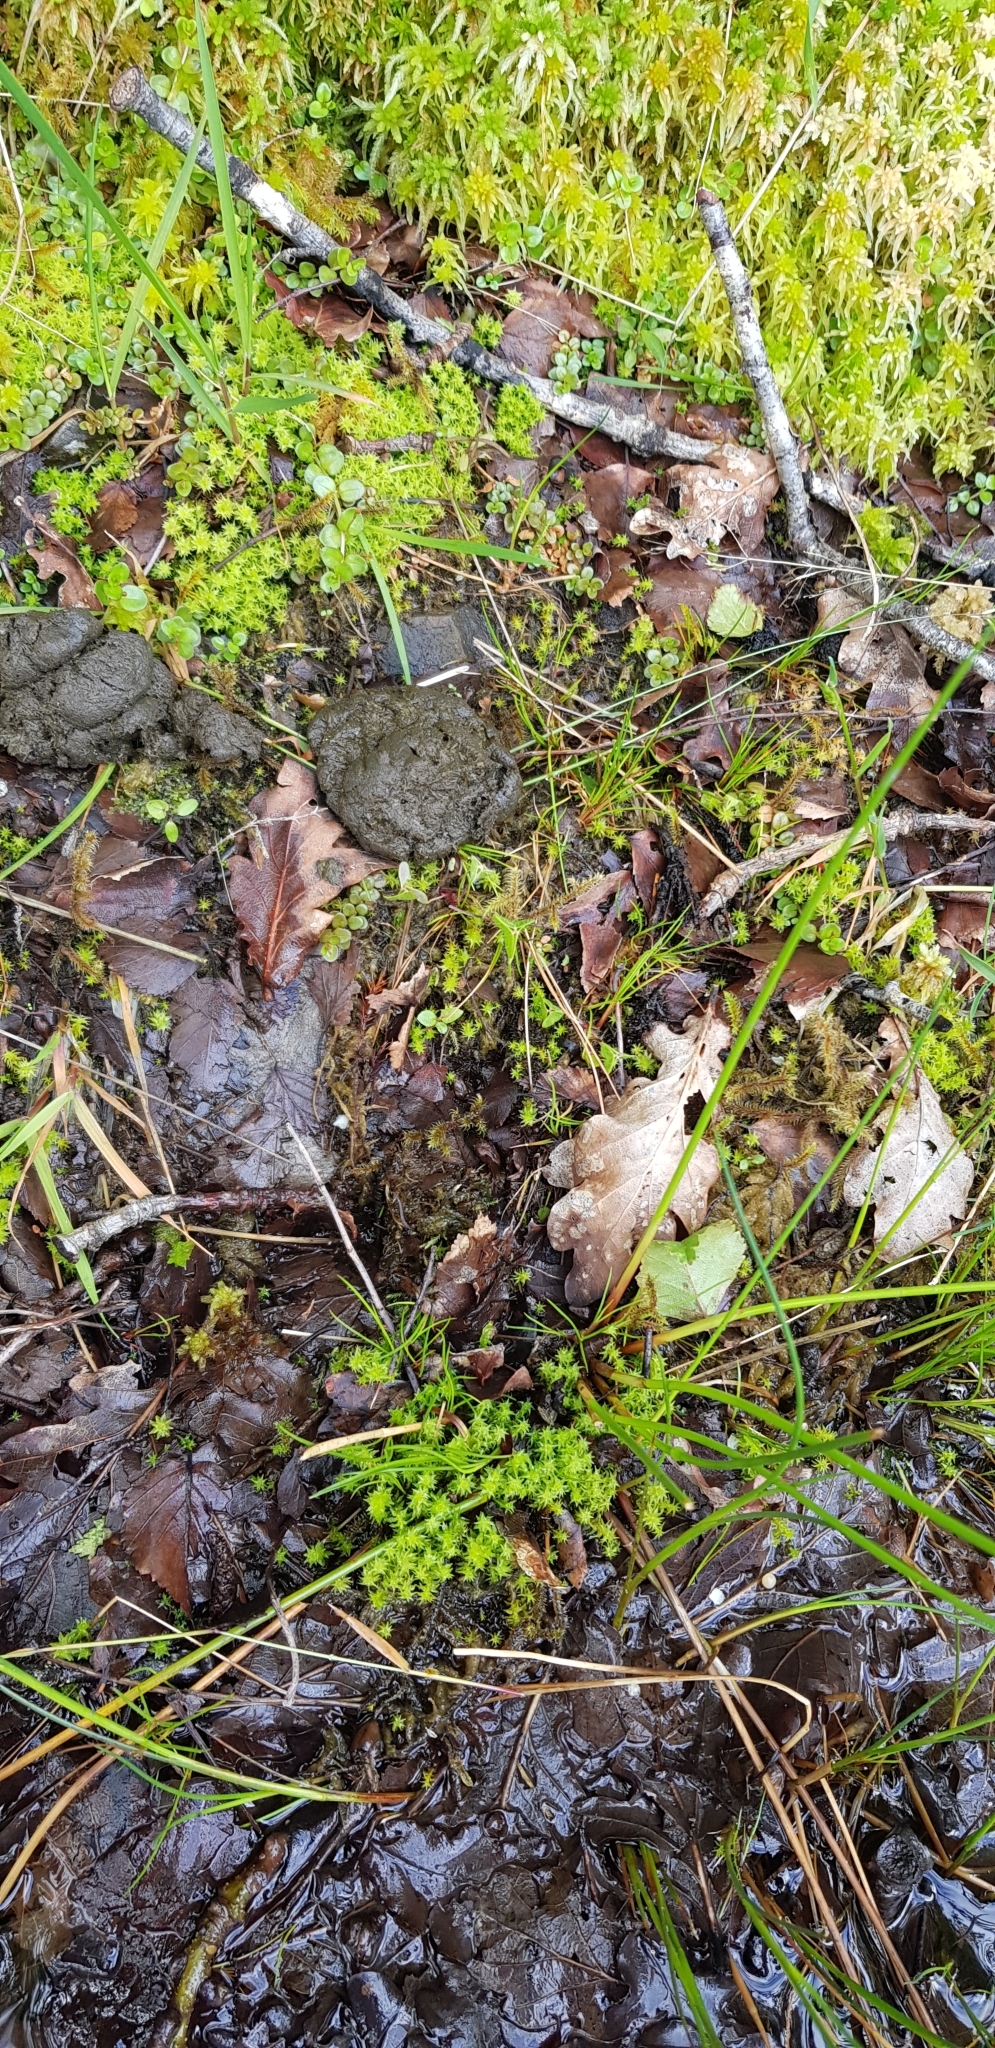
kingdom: Plantae
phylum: Bryophyta
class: Bryopsida
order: Dicranales
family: Aongstroemiaceae
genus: Diobelonella
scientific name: Diobelonella palustris
